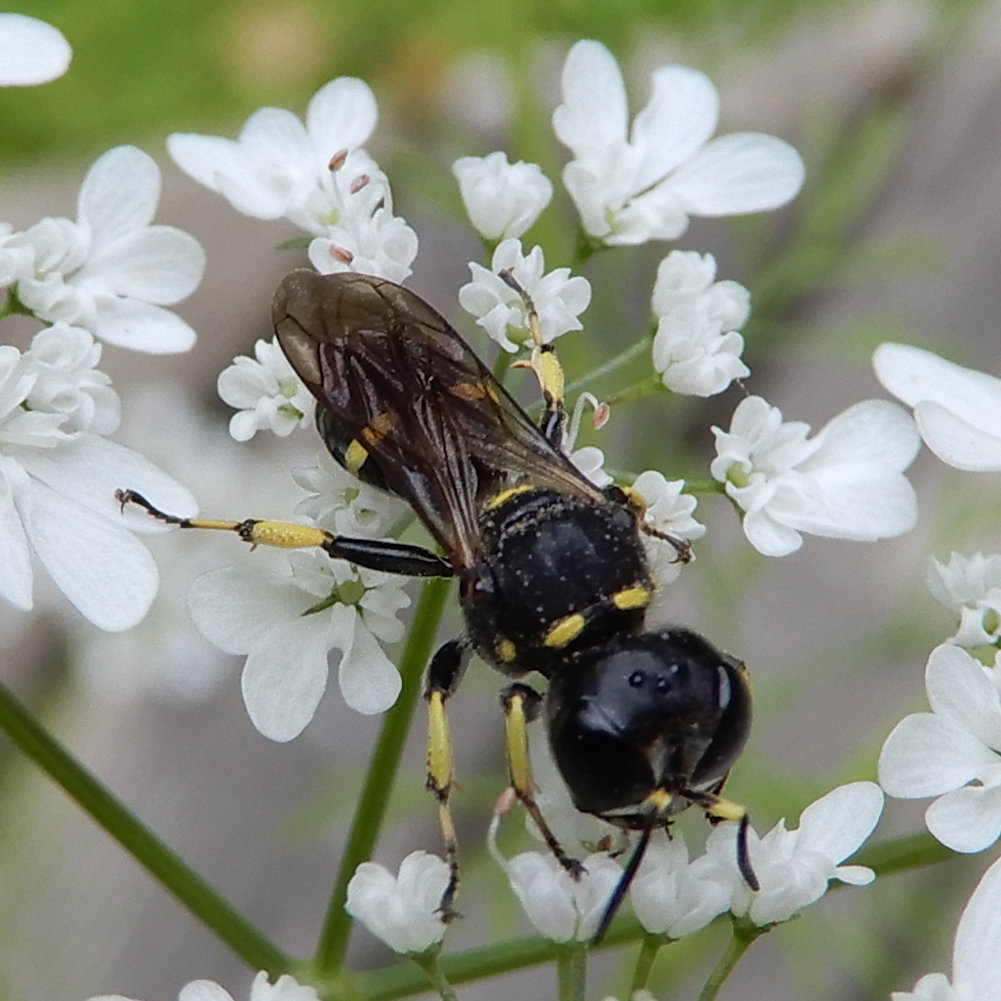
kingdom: Animalia
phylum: Arthropoda
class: Insecta
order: Hymenoptera
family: Crabronidae
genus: Ectemnius
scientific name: Ectemnius continuus
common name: Common ectemnius
